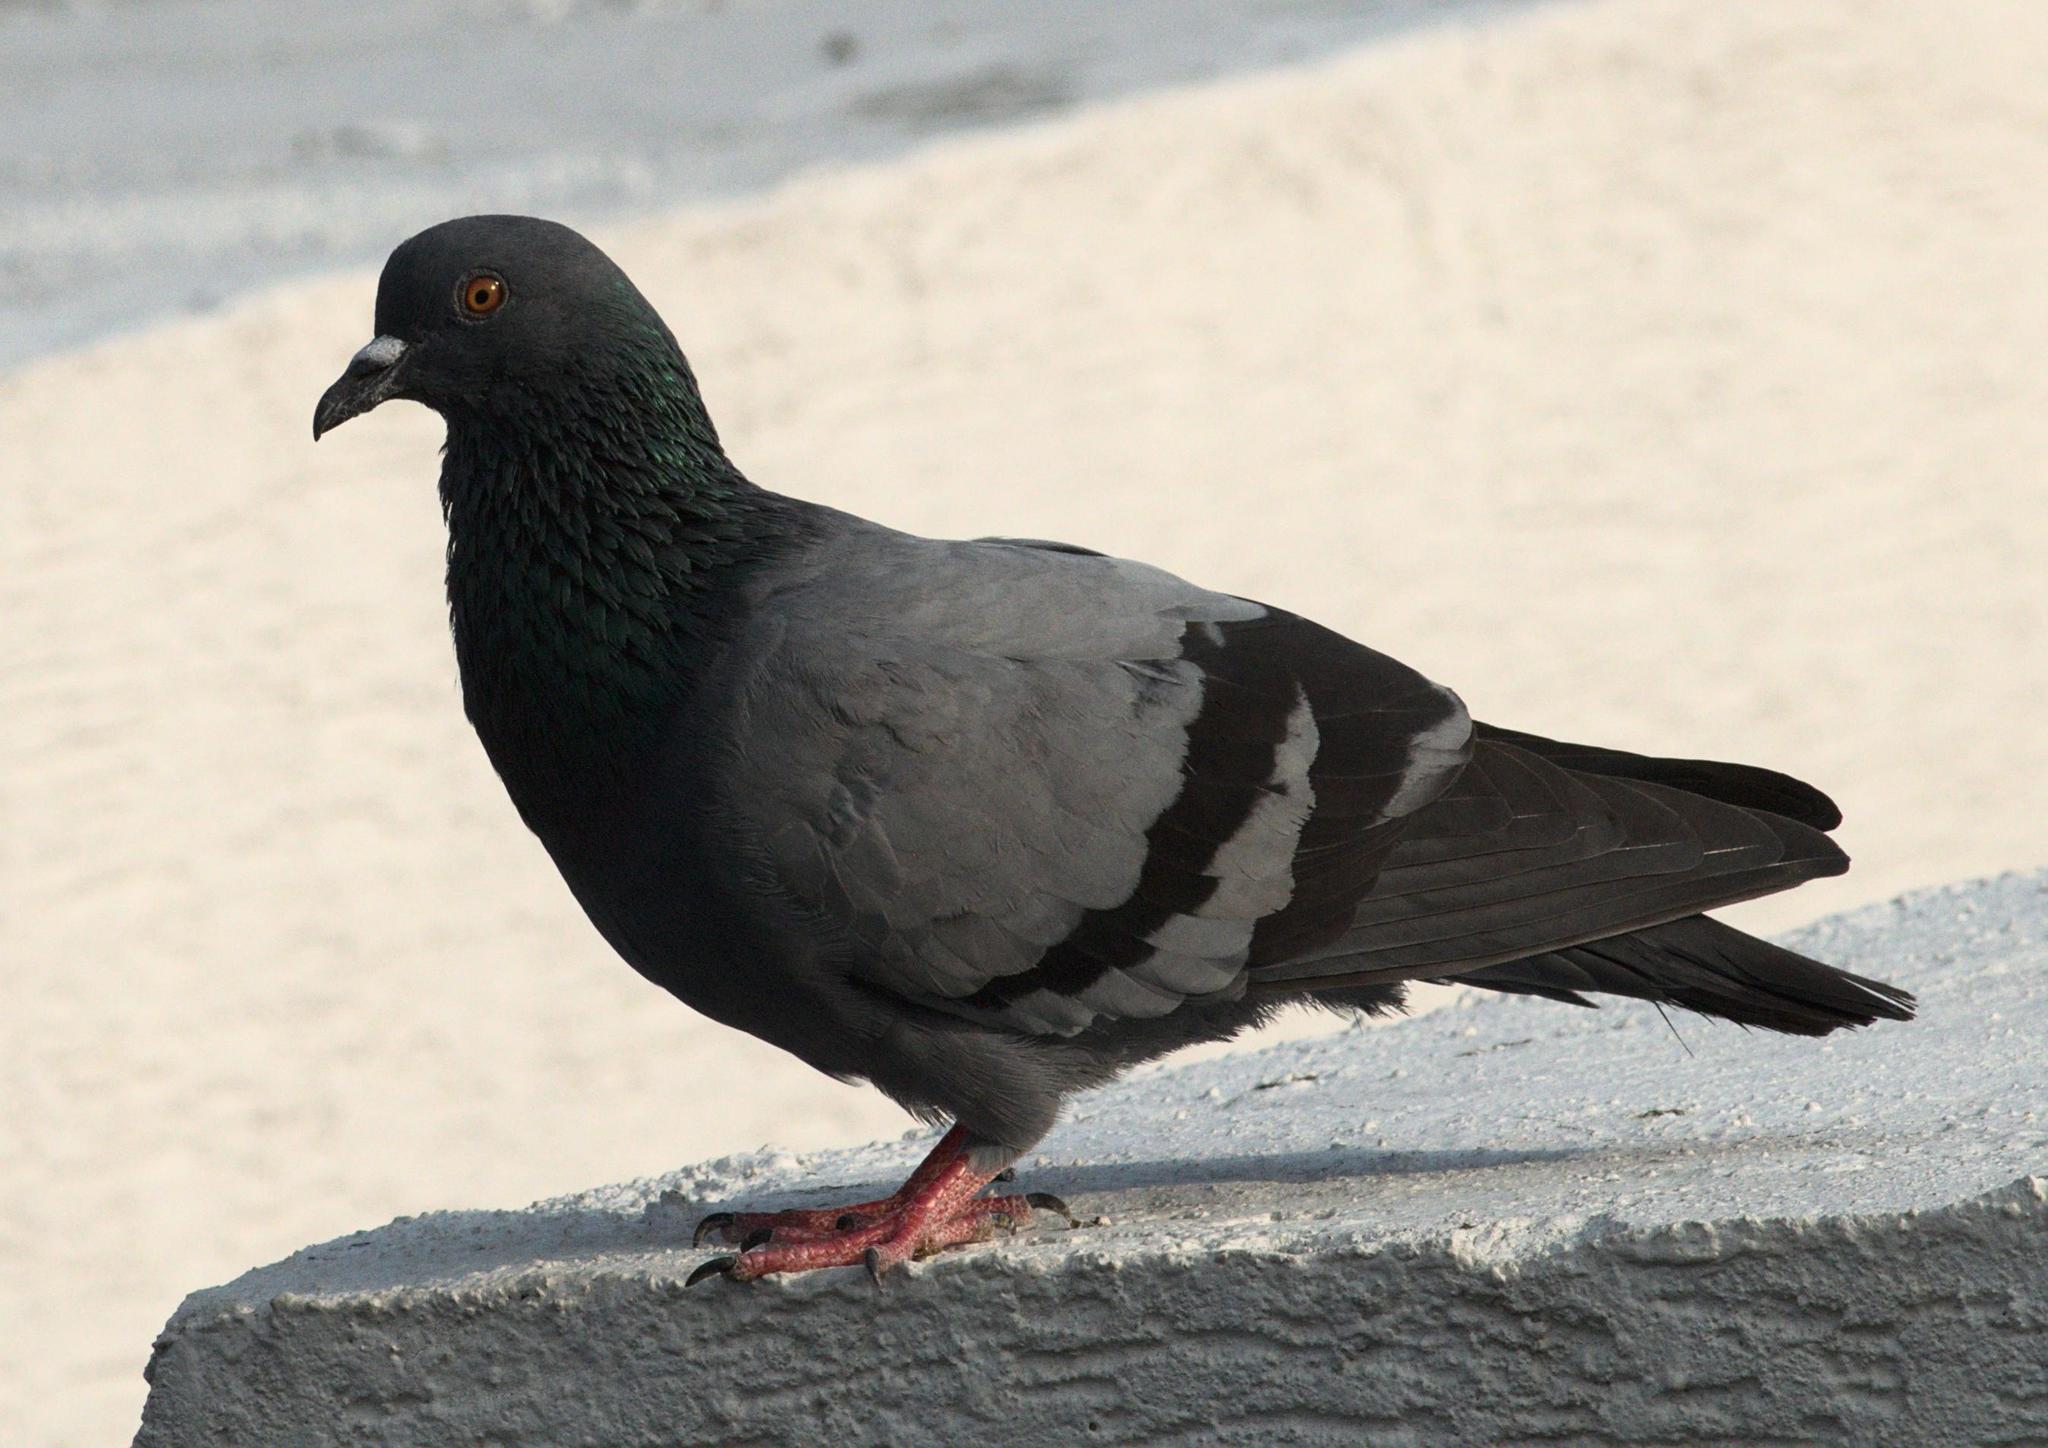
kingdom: Animalia
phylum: Chordata
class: Aves
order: Columbiformes
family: Columbidae
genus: Columba
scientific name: Columba livia
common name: Rock pigeon
